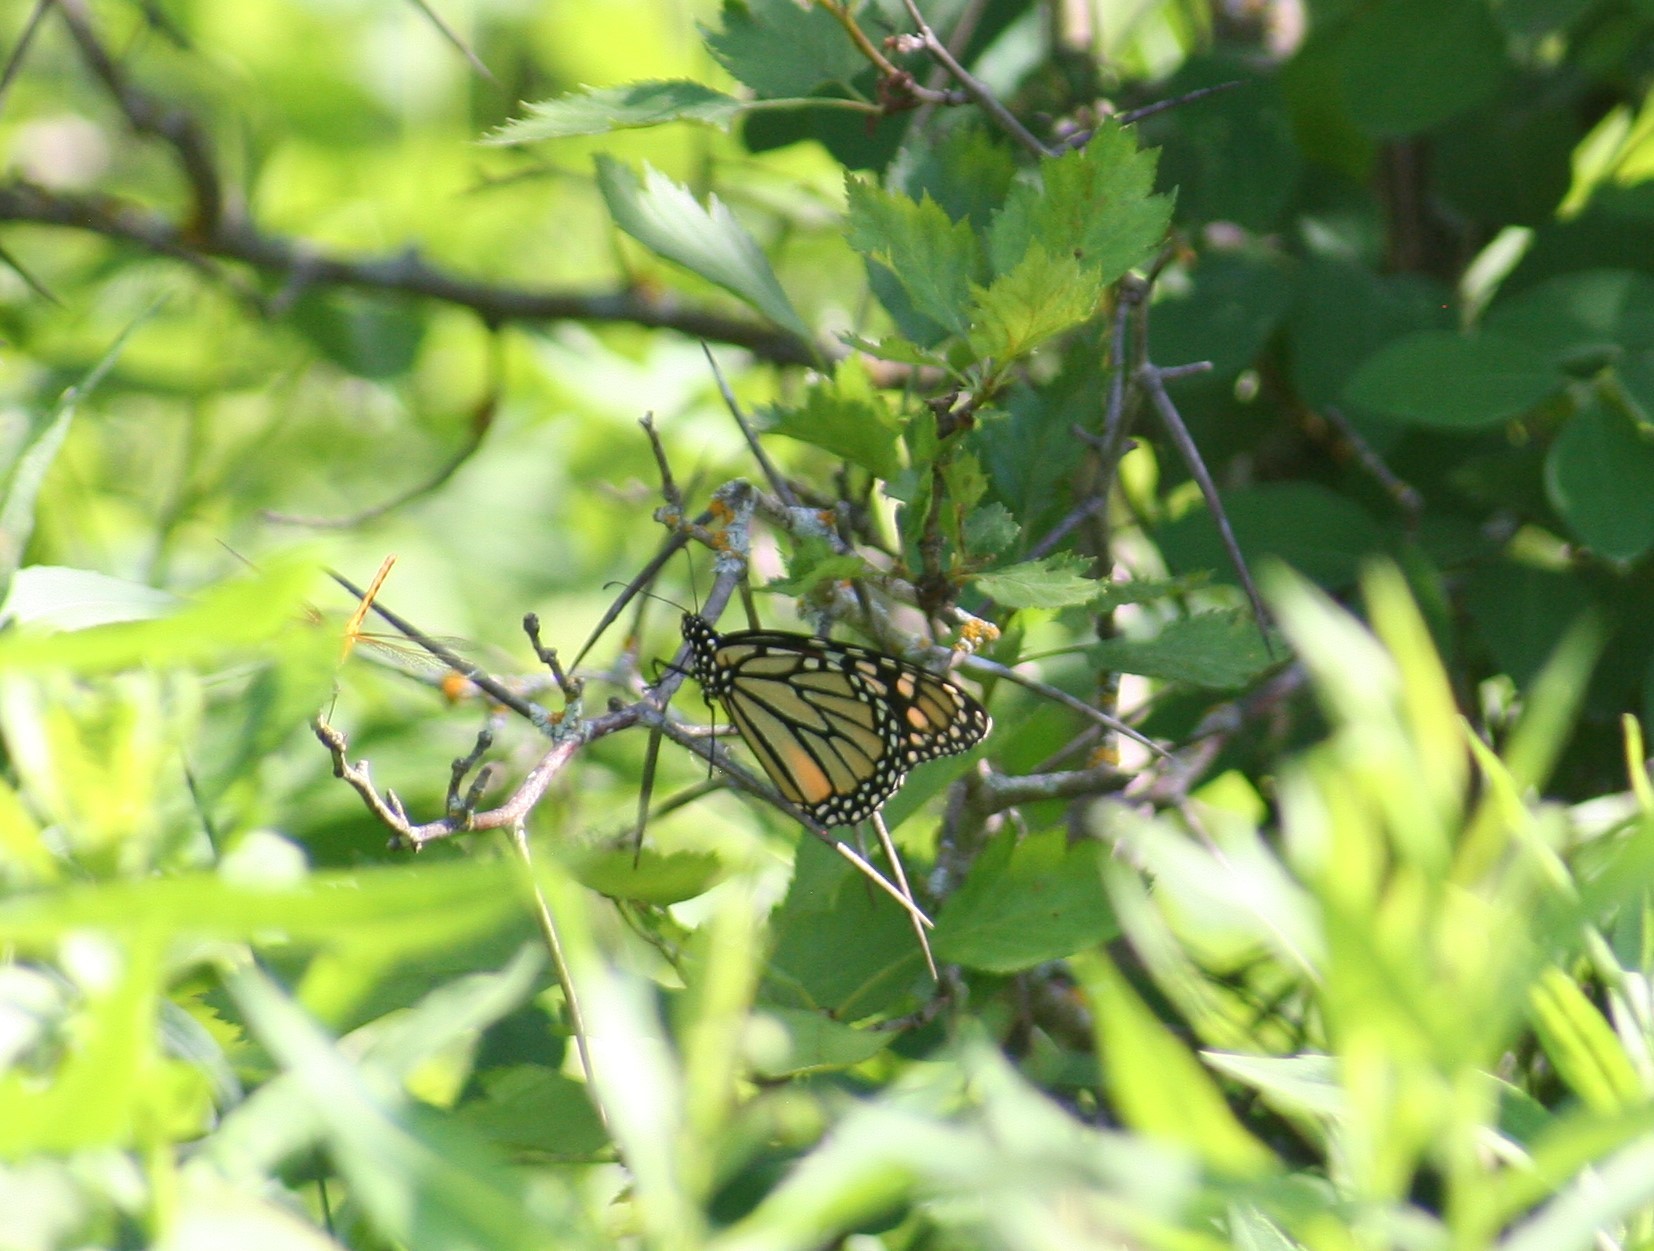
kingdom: Animalia
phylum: Arthropoda
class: Insecta
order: Lepidoptera
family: Nymphalidae
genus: Danaus
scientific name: Danaus plexippus
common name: Monarch
